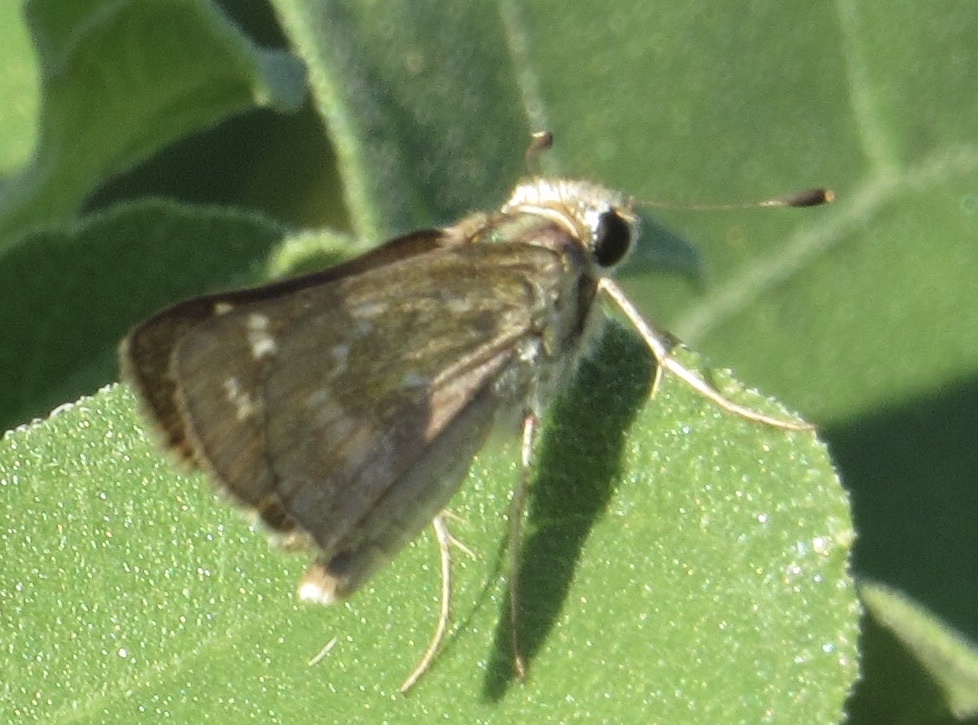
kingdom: Animalia
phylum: Arthropoda
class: Insecta
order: Lepidoptera
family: Hesperiidae
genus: Atalopedes
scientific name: Atalopedes
